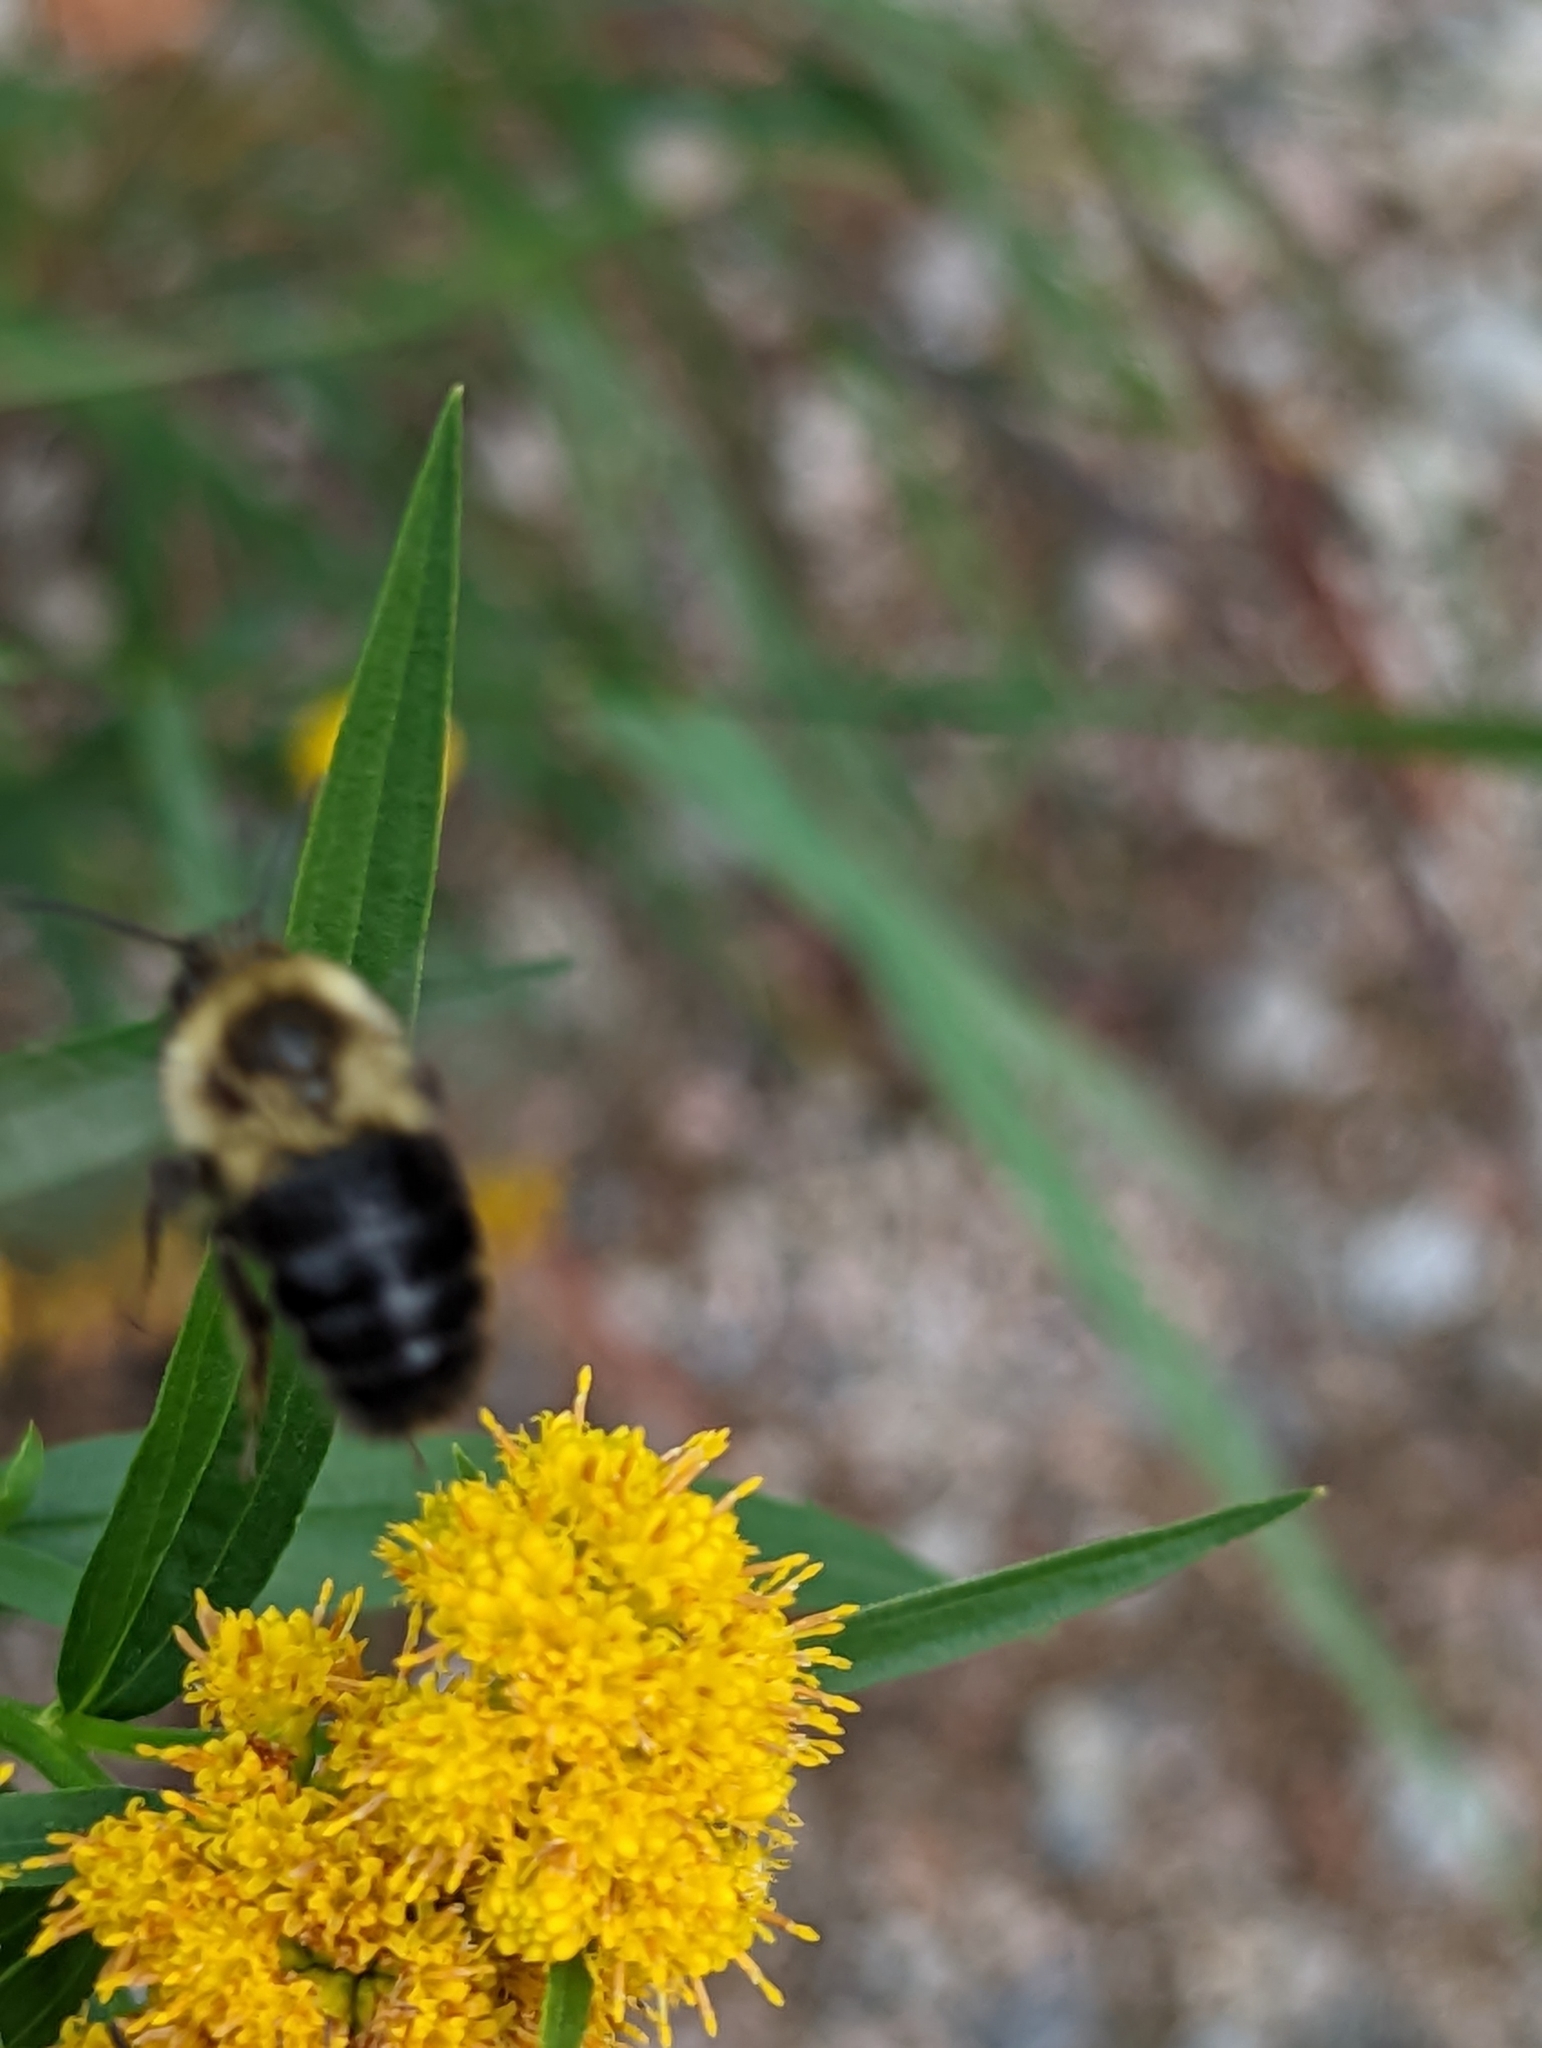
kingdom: Animalia
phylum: Arthropoda
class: Insecta
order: Hymenoptera
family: Apidae
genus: Bombus
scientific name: Bombus impatiens
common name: Common eastern bumble bee
